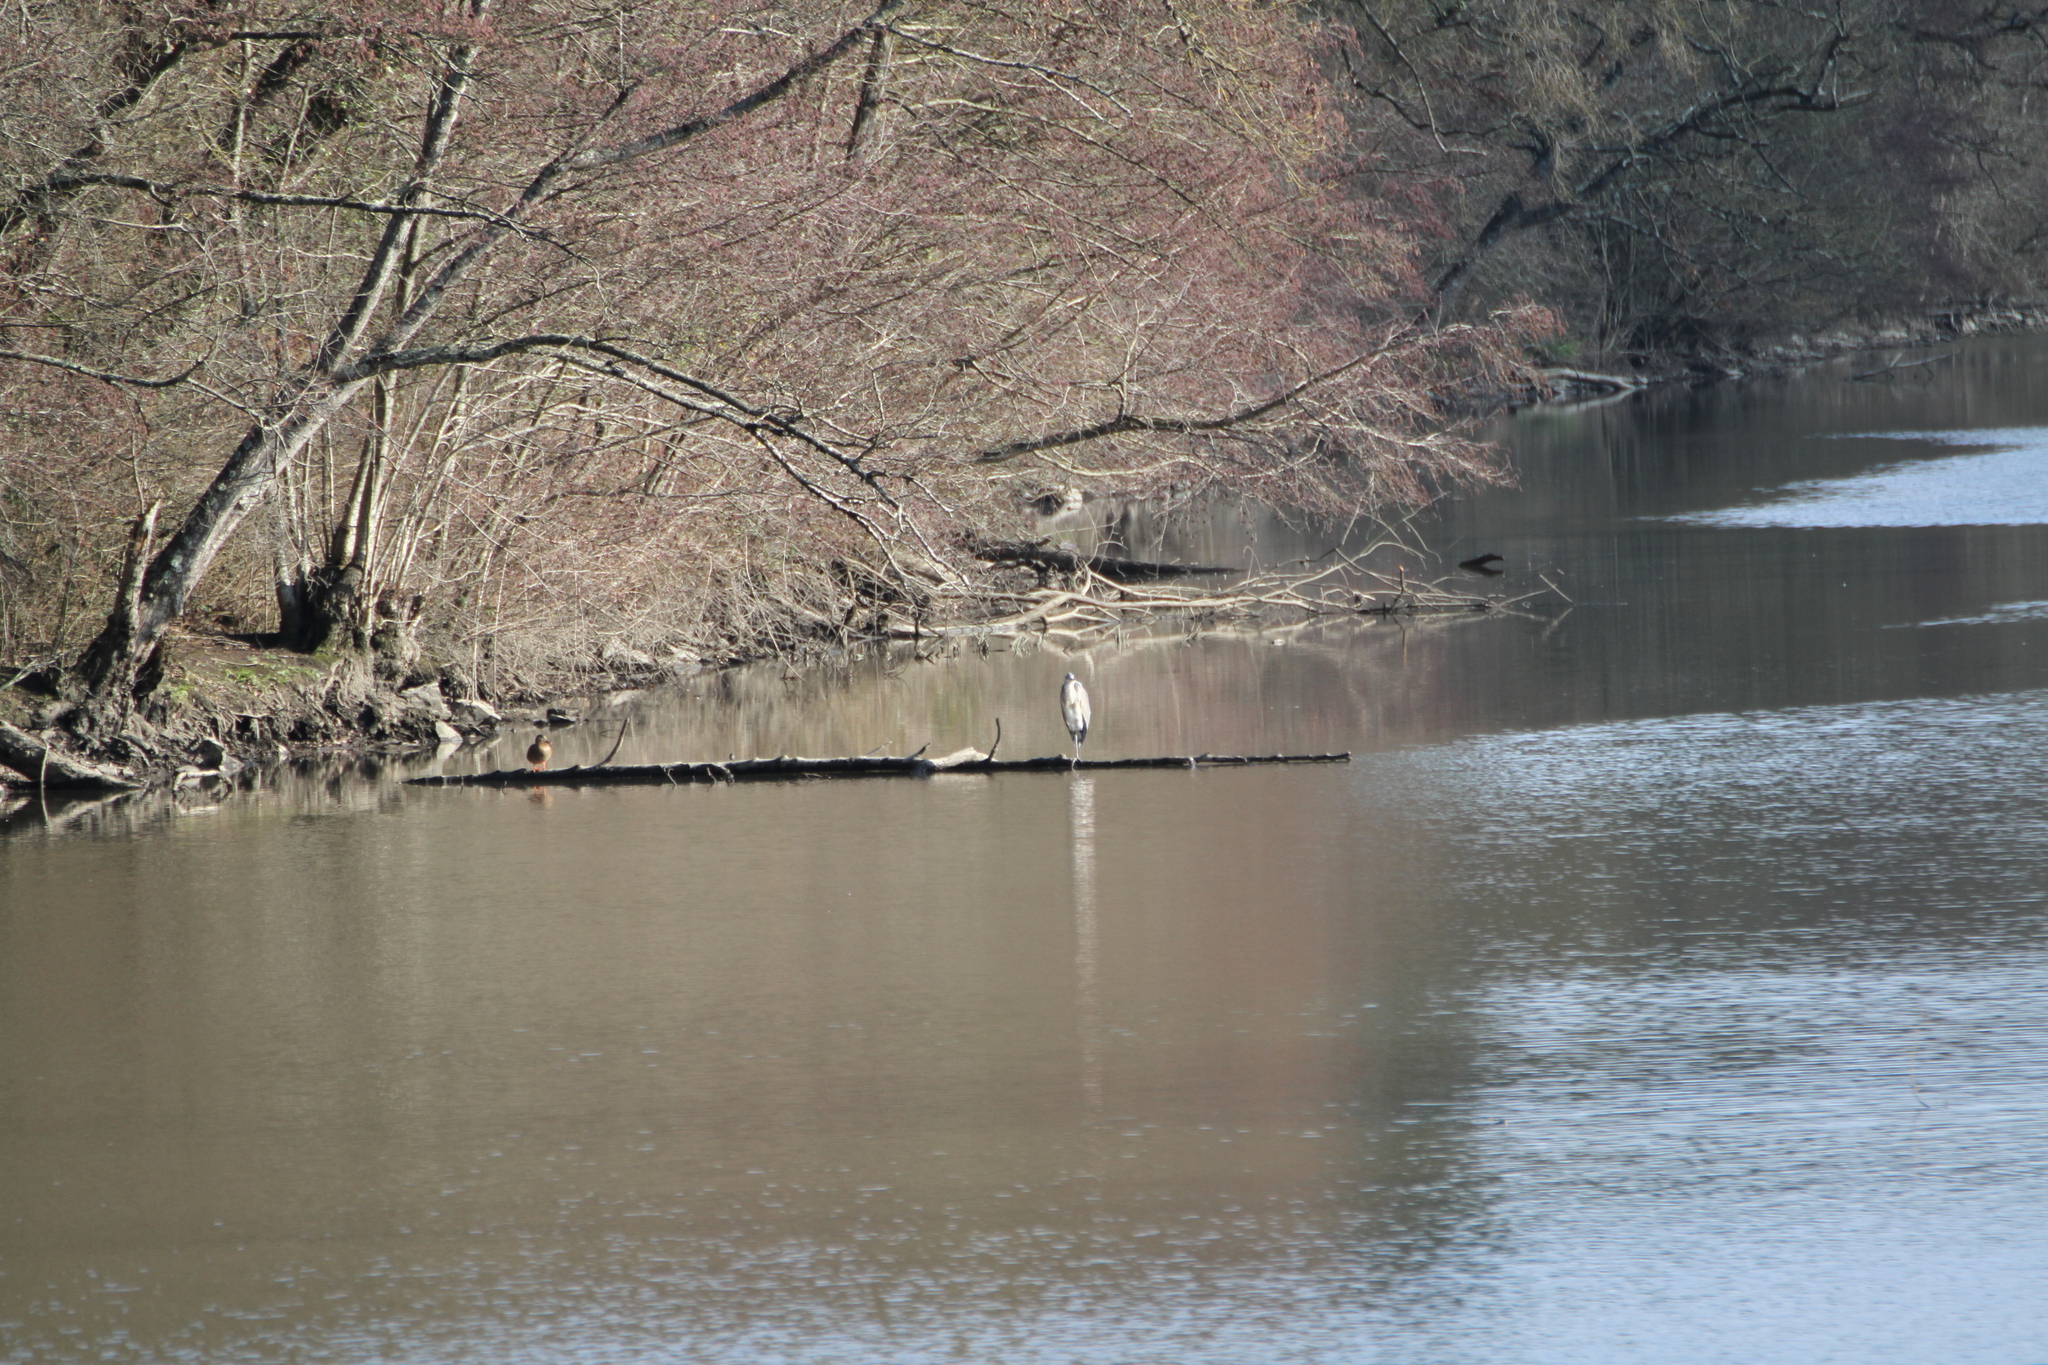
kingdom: Animalia
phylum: Chordata
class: Aves
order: Pelecaniformes
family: Ardeidae
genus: Ardea
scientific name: Ardea cinerea
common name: Grey heron
